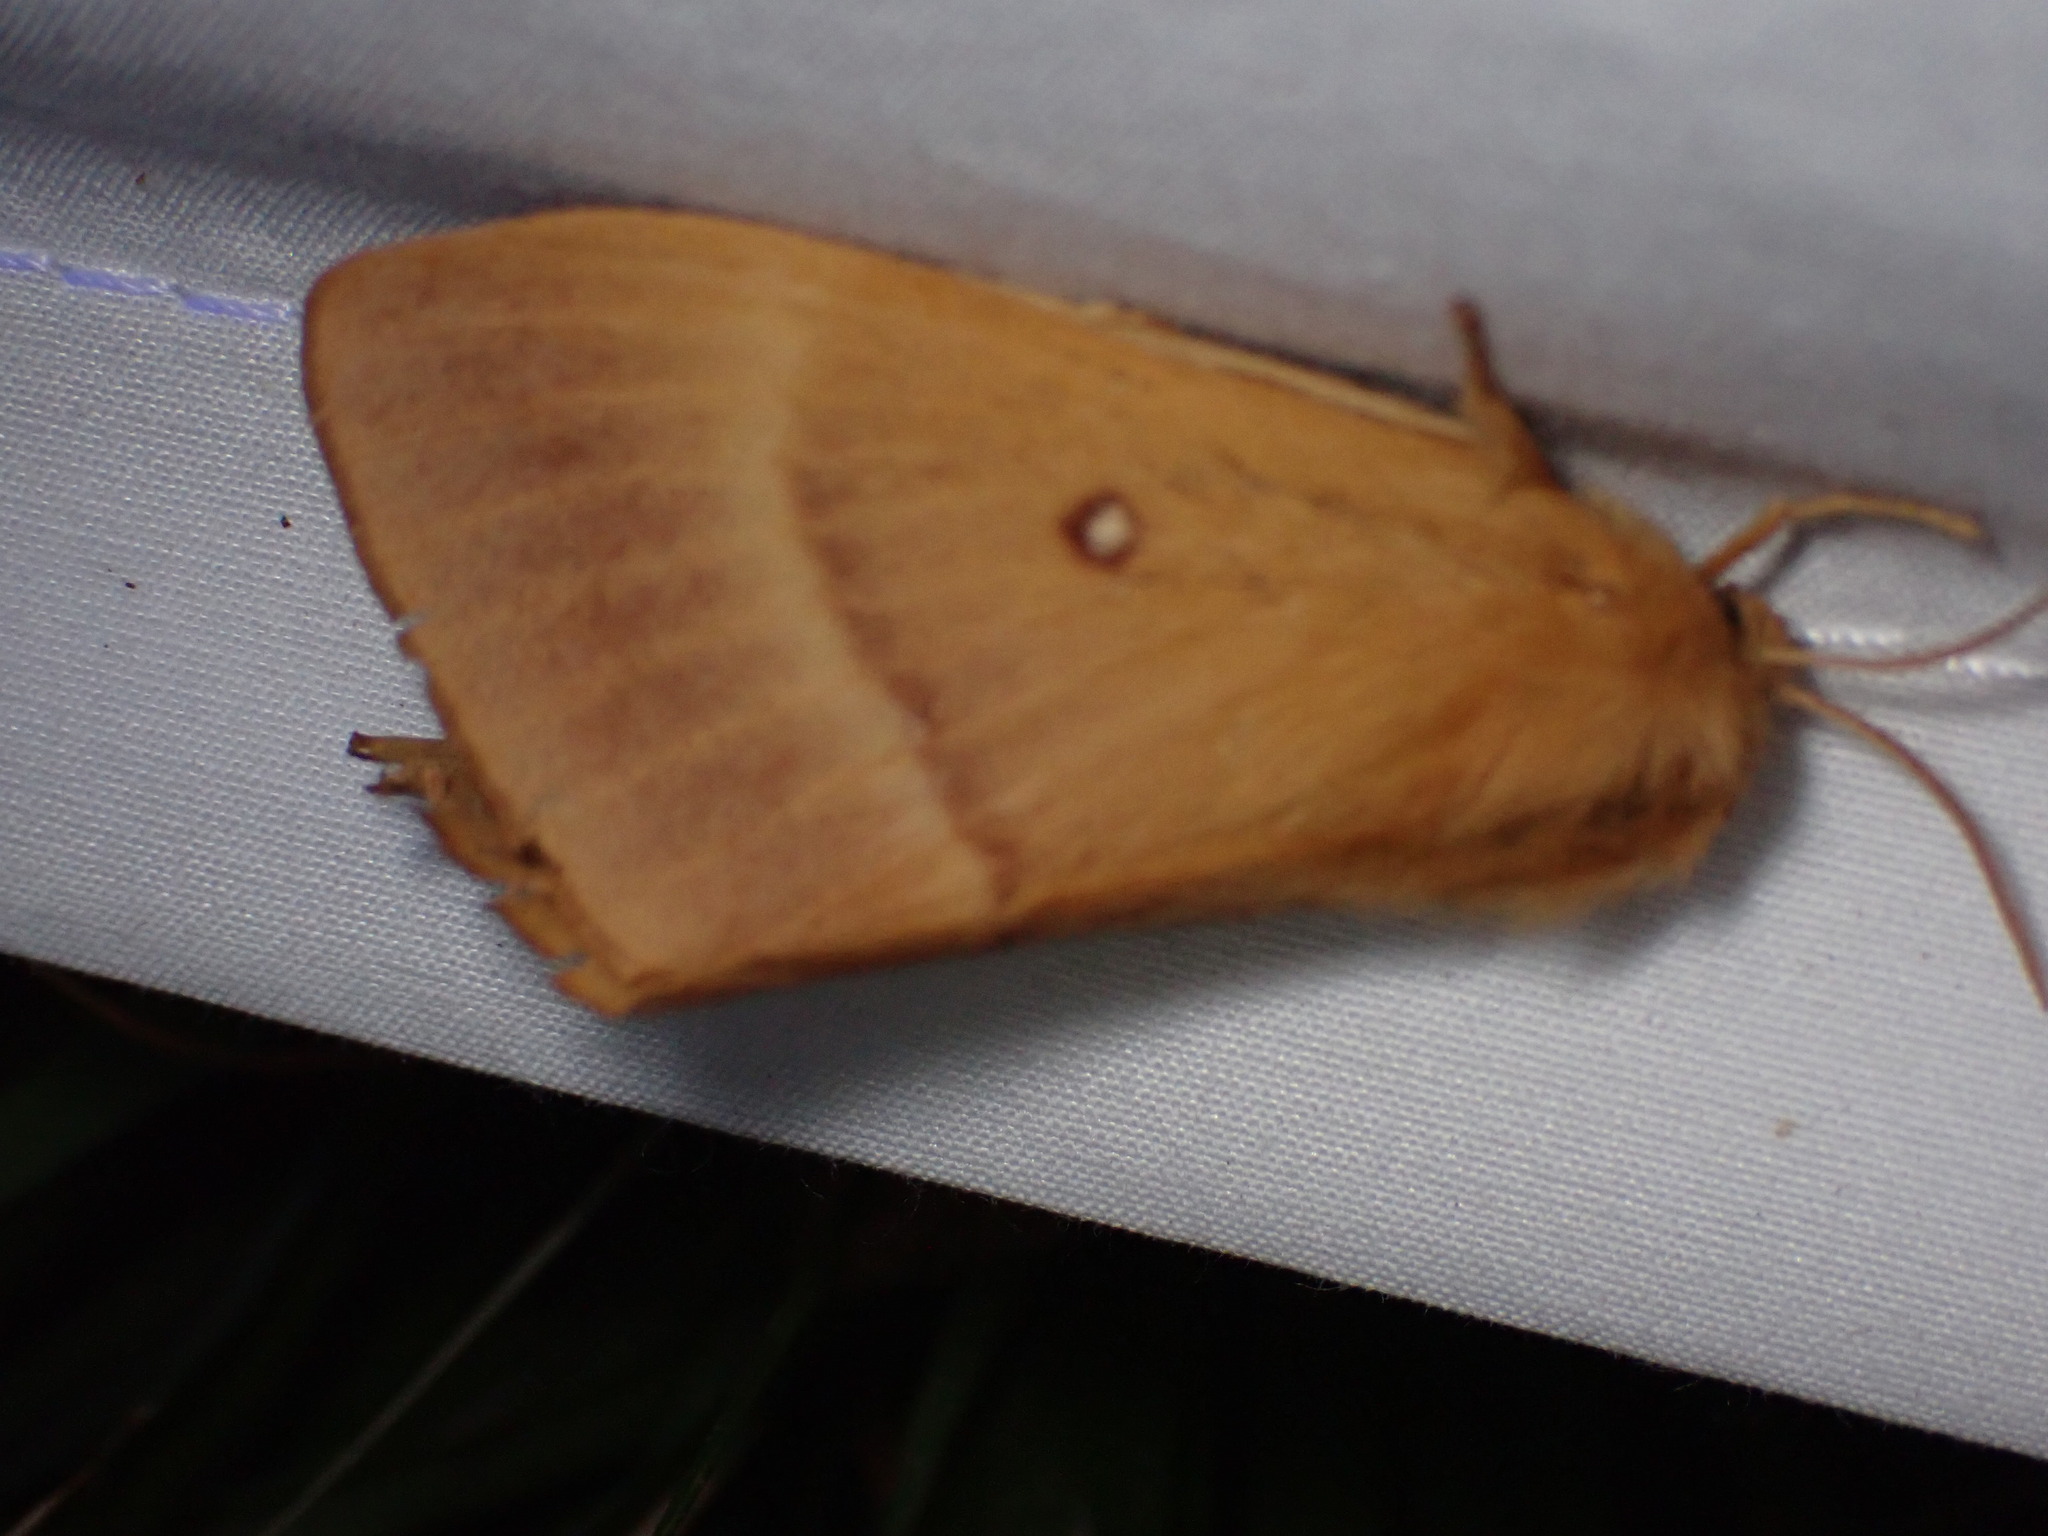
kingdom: Animalia
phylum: Arthropoda
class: Insecta
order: Lepidoptera
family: Lasiocampidae
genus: Lasiocampa
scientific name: Lasiocampa quercus
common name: Oak eggar
